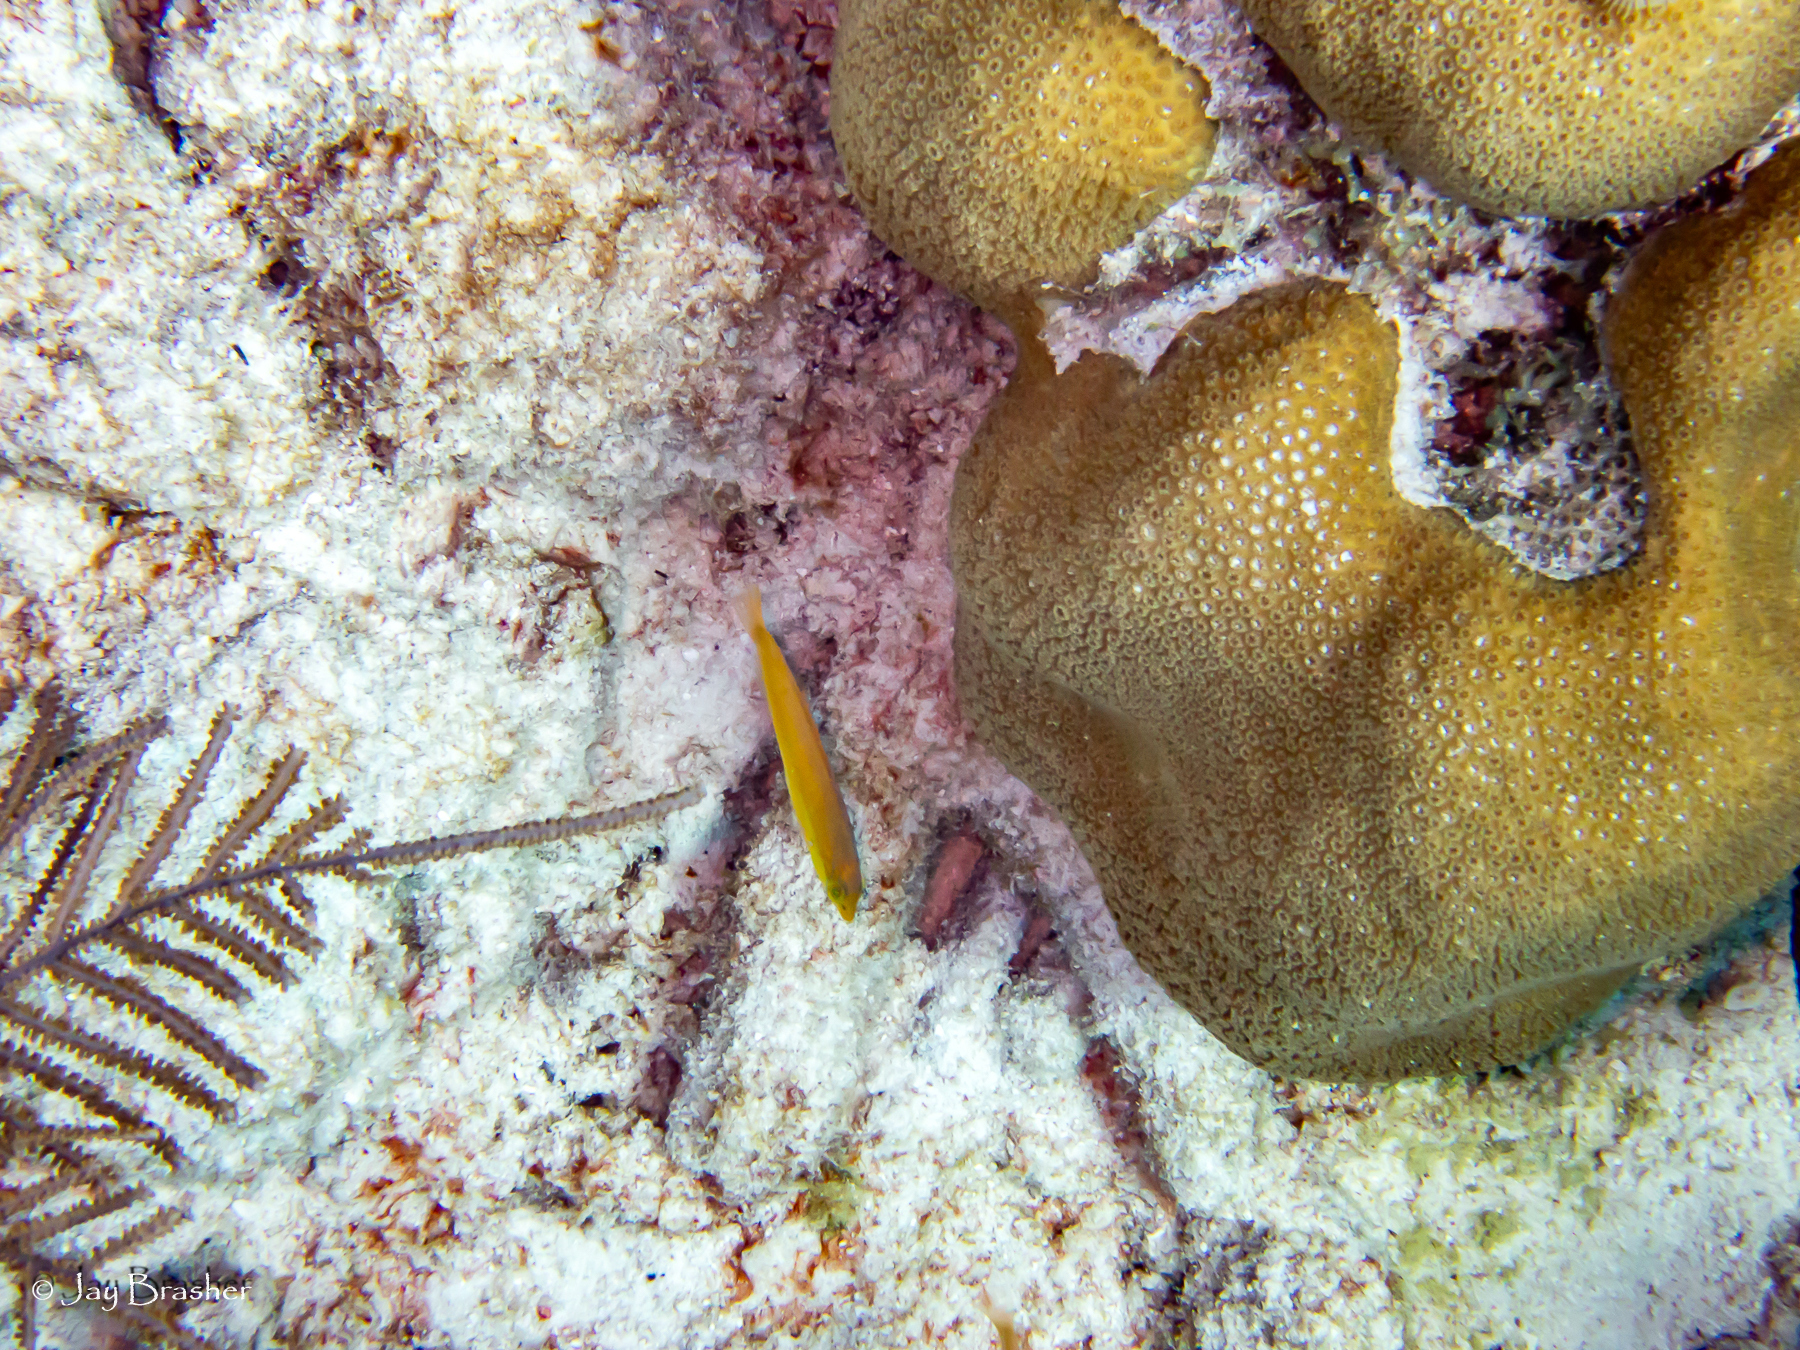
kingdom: Animalia
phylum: Chordata
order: Perciformes
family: Labridae
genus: Halichoeres
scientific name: Halichoeres garnoti
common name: Yellowhead wrasse
